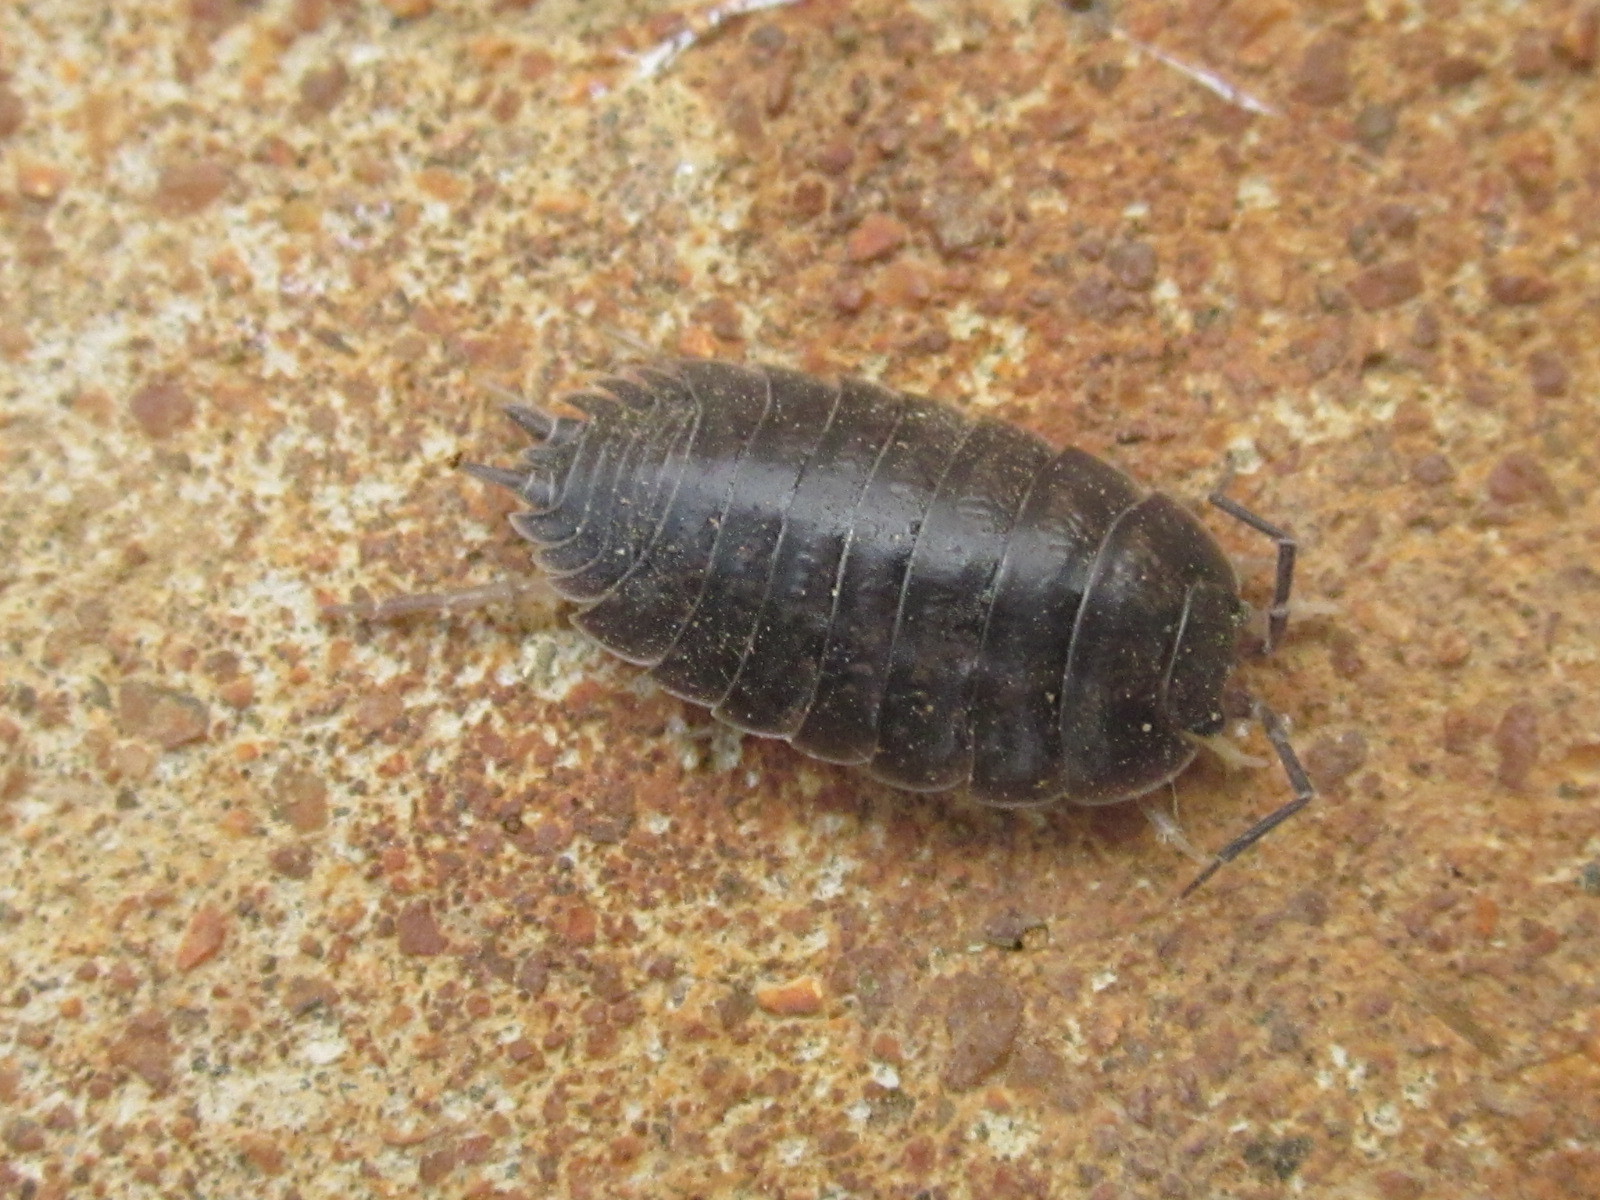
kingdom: Animalia
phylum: Arthropoda
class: Malacostraca
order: Isopoda
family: Porcellionidae
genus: Porcellio
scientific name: Porcellio laevis
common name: Swift woodlouse
